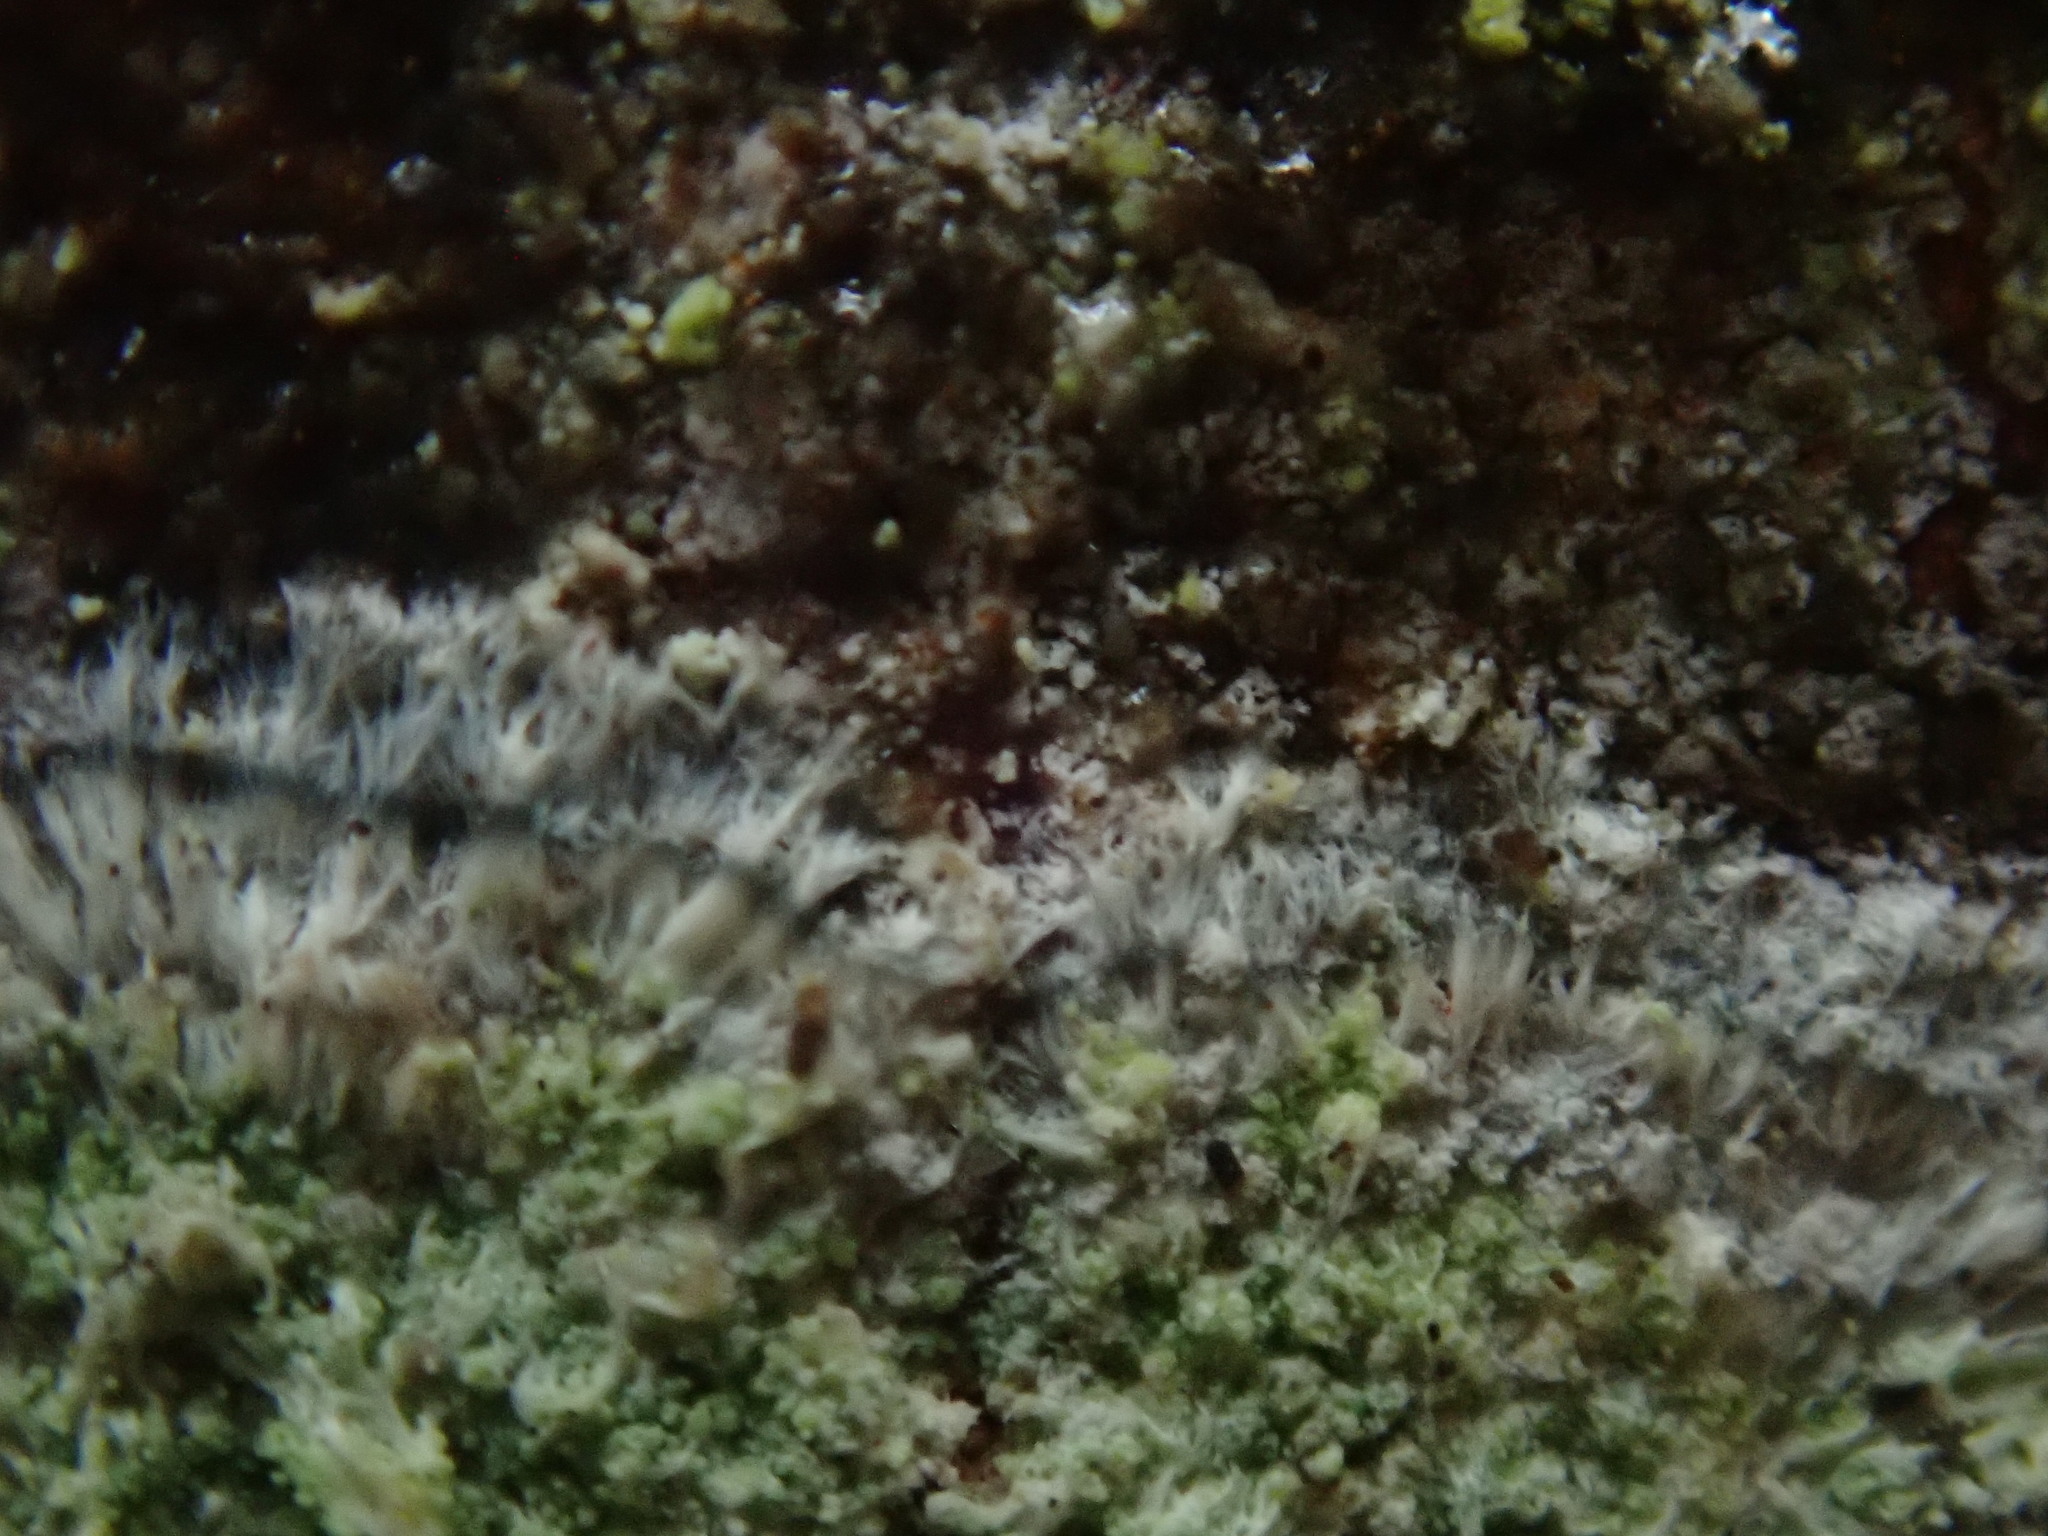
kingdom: Fungi
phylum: Ascomycota
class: Lecanoromycetes
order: Pertusariales
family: Pertusariaceae
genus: Verseghya
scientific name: Verseghya thysanophora
